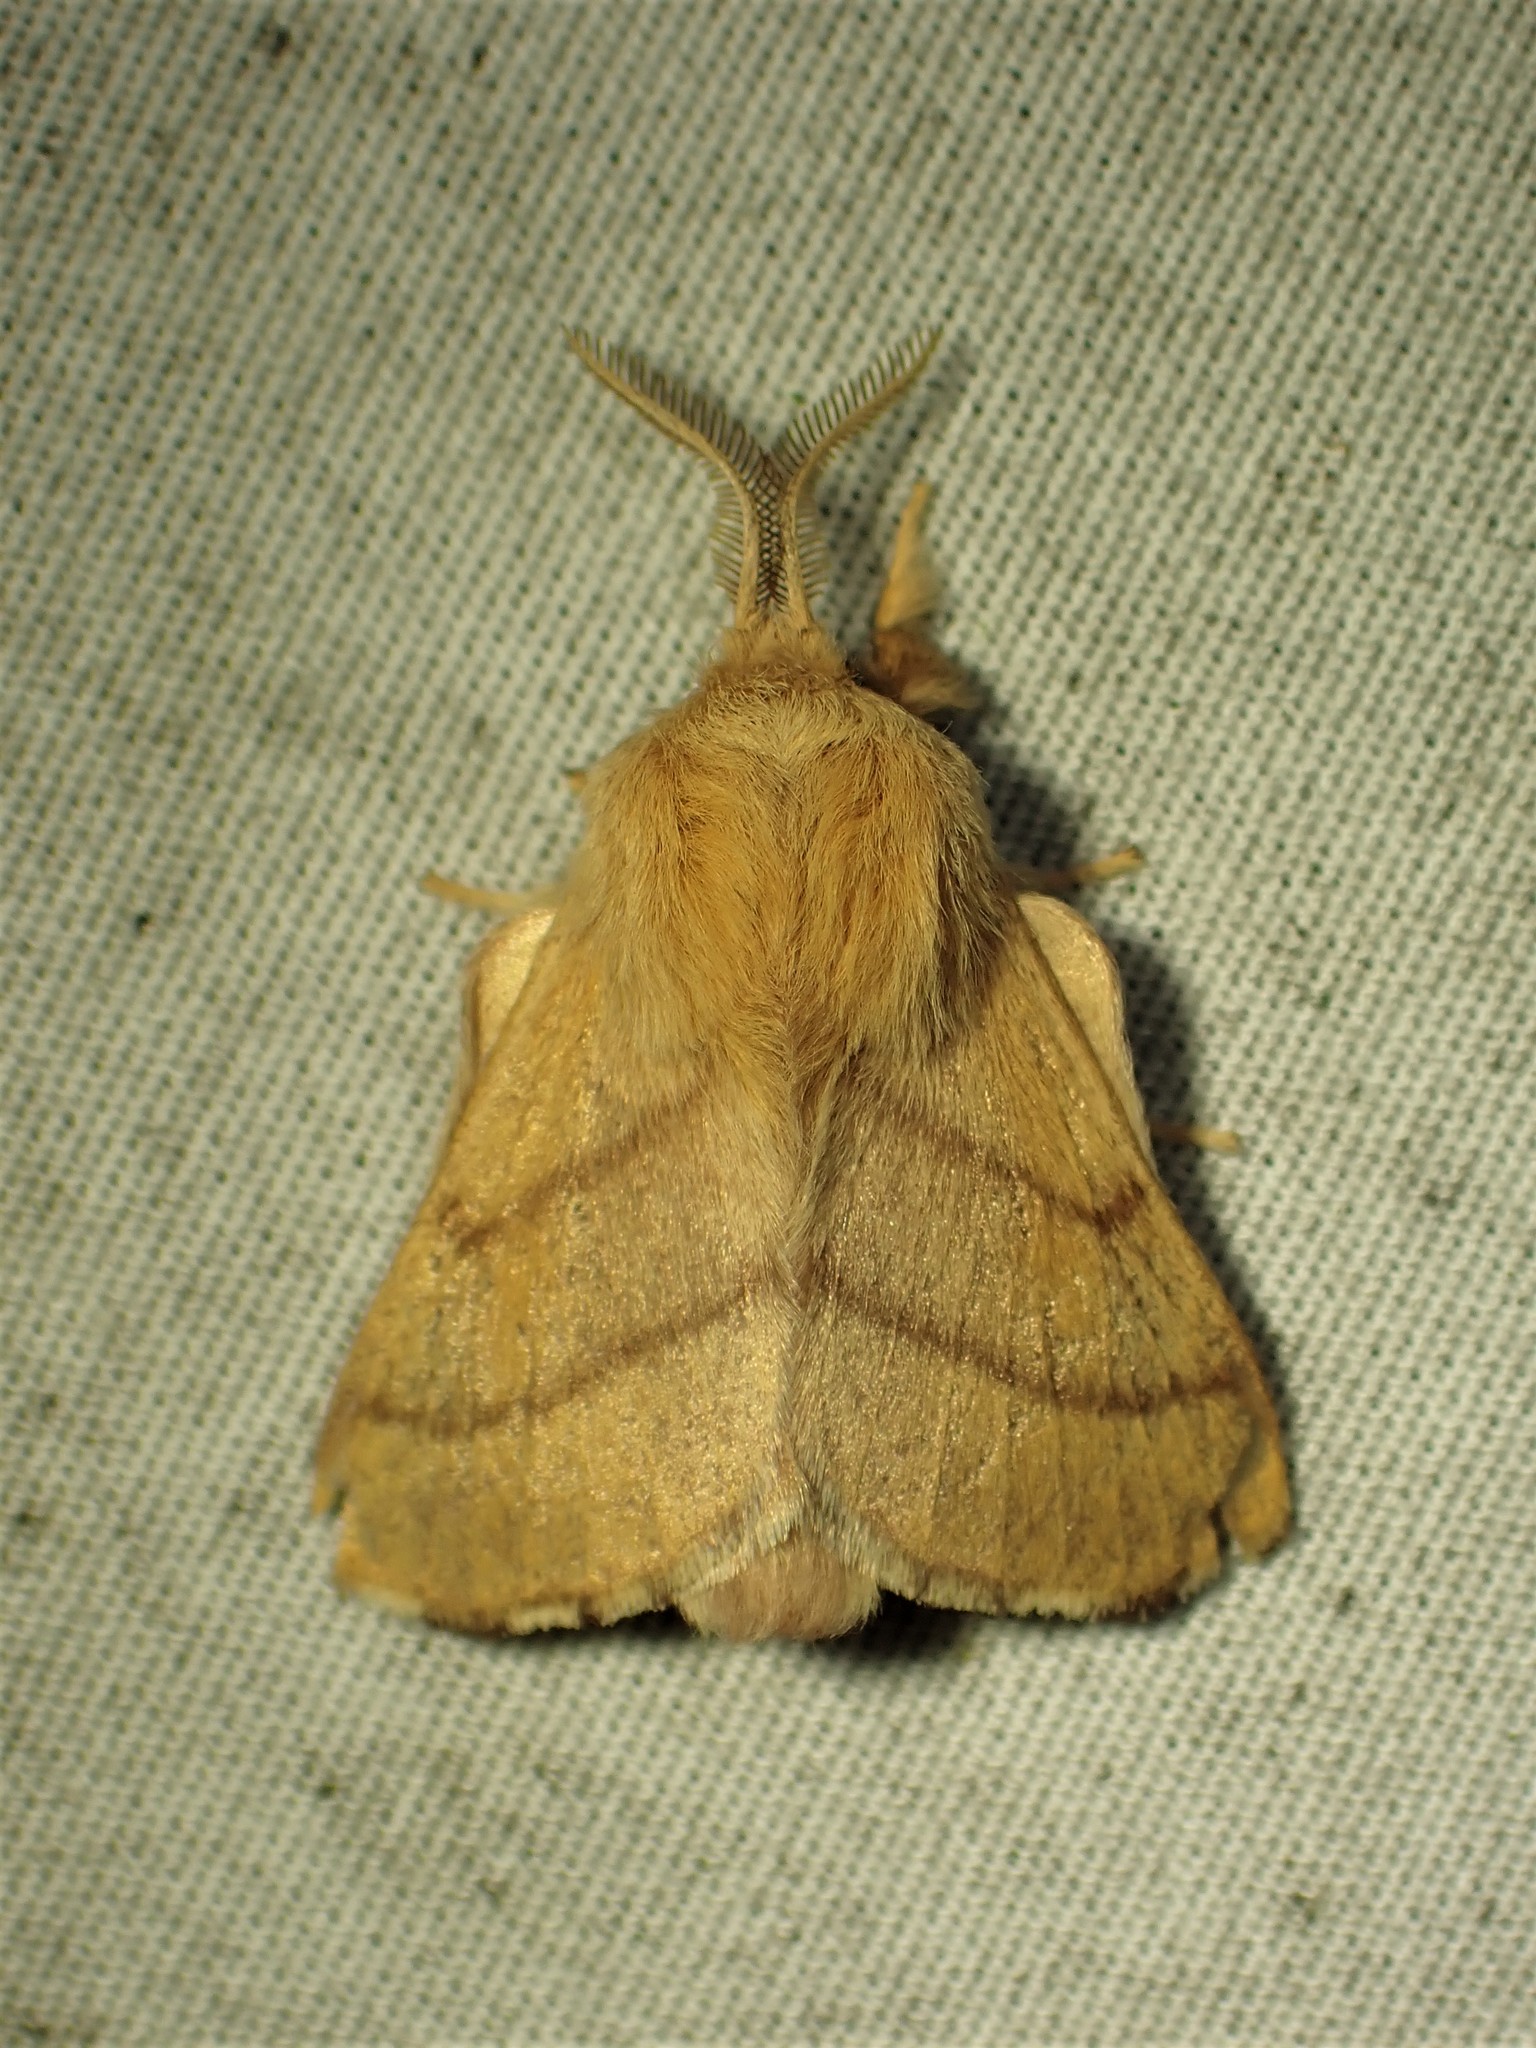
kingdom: Animalia
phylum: Arthropoda
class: Insecta
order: Lepidoptera
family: Lasiocampidae
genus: Malacosoma
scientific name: Malacosoma disstria
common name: Forest tent caterpillar
